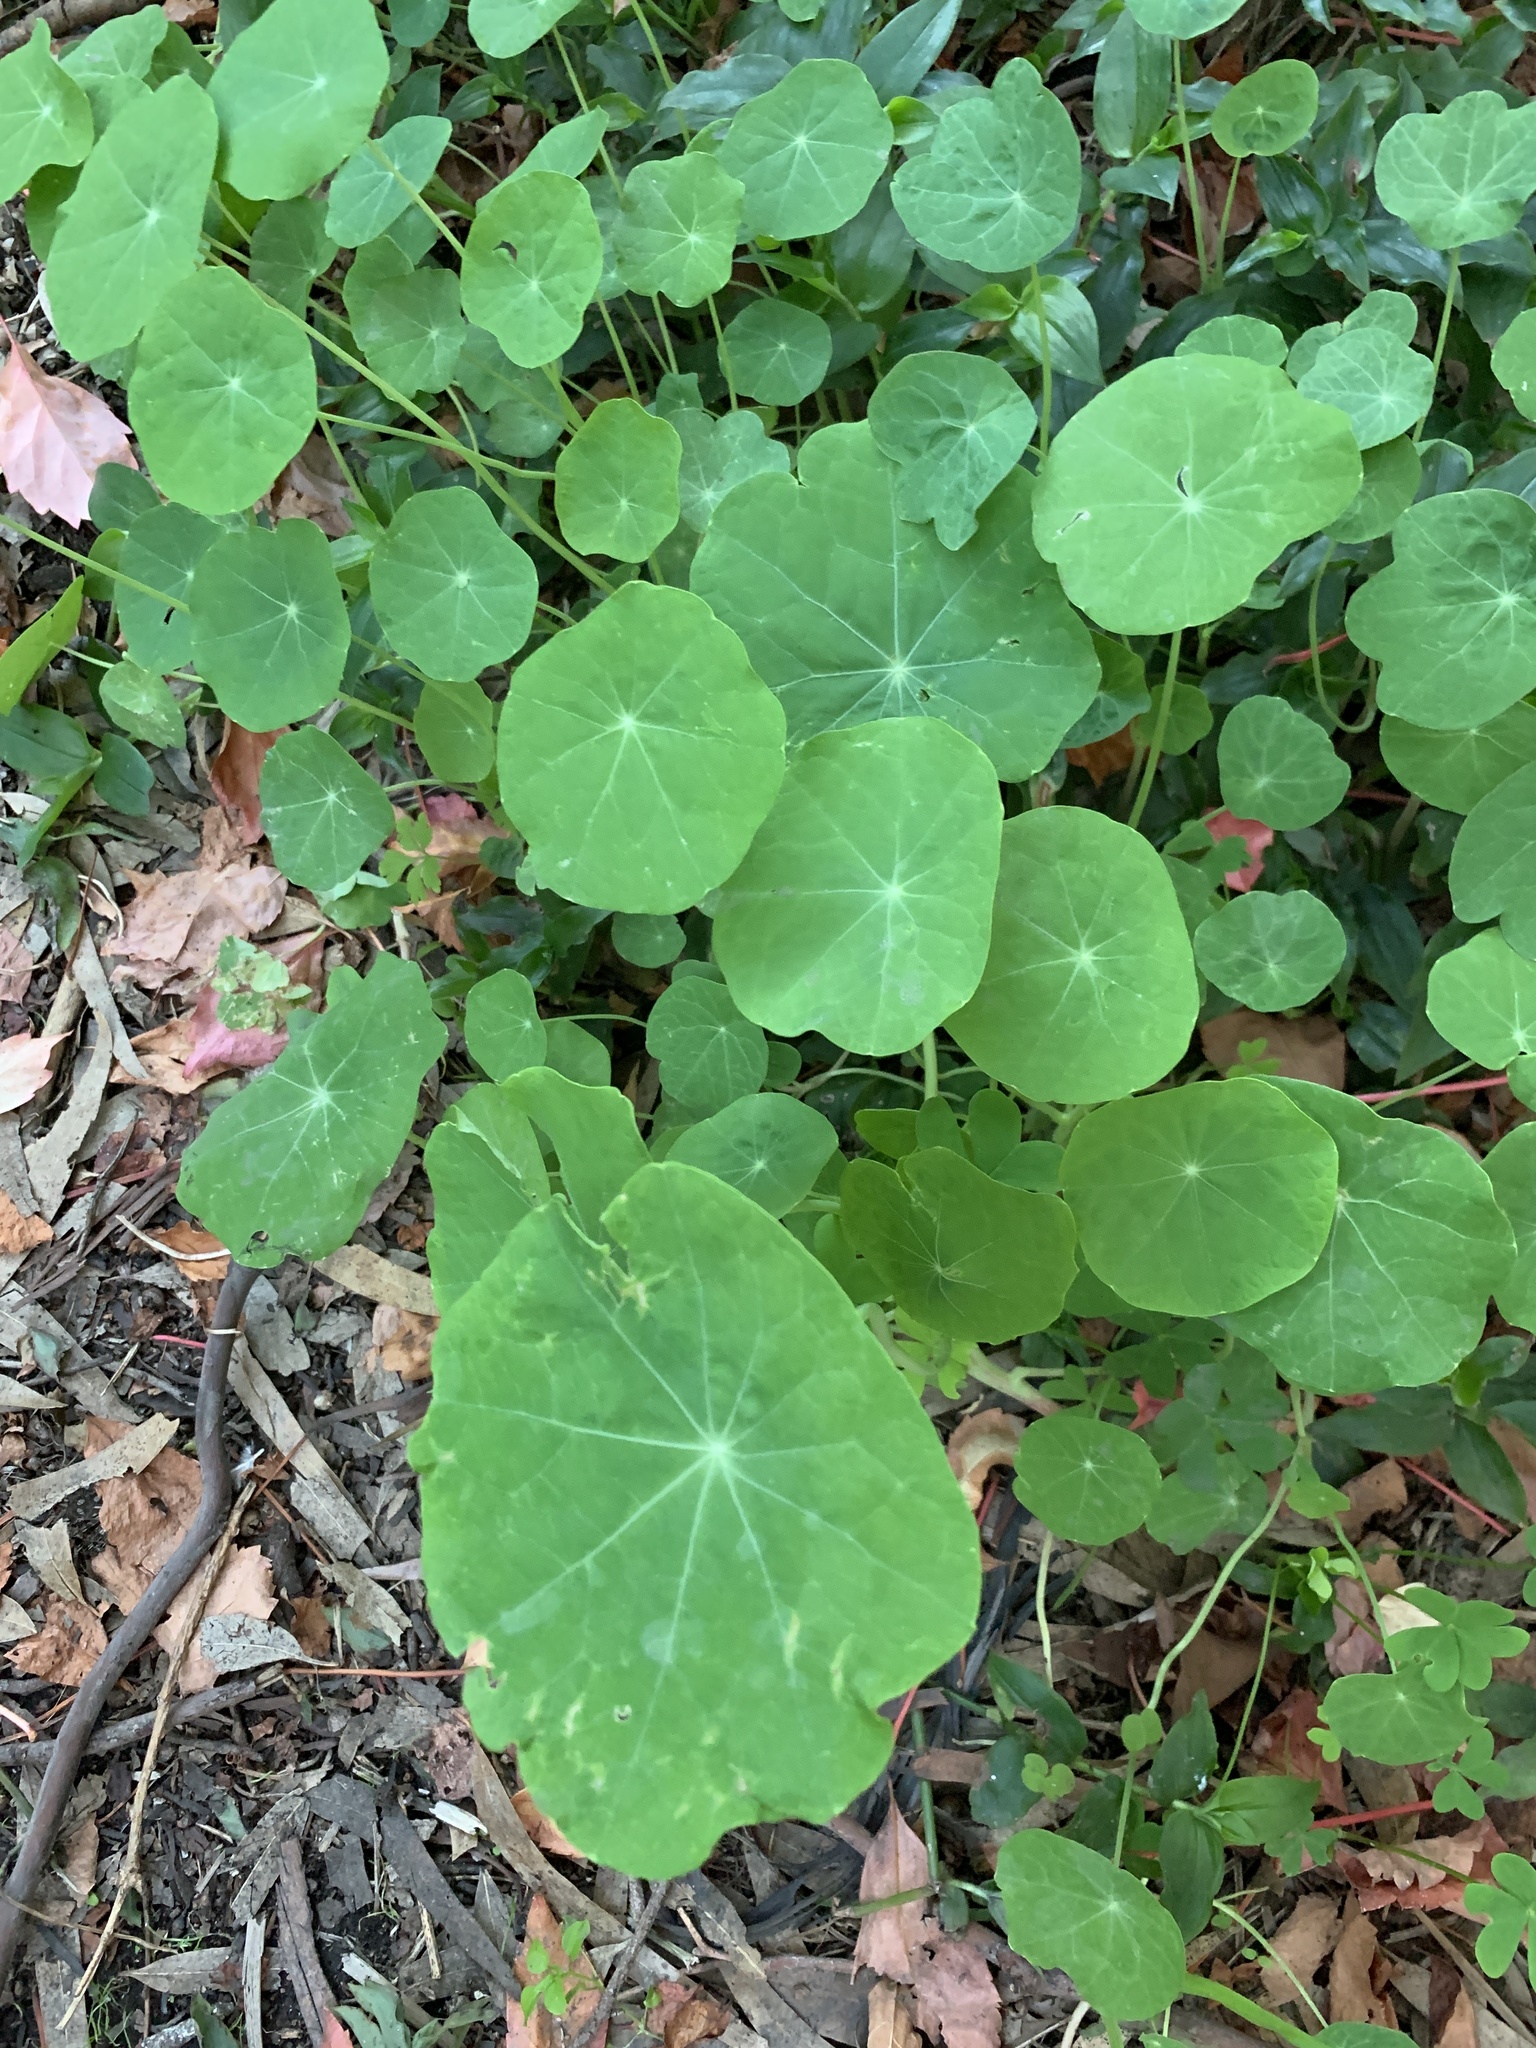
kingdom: Plantae
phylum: Tracheophyta
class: Magnoliopsida
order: Brassicales
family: Tropaeolaceae
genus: Tropaeolum
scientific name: Tropaeolum majus
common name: Nasturtium
